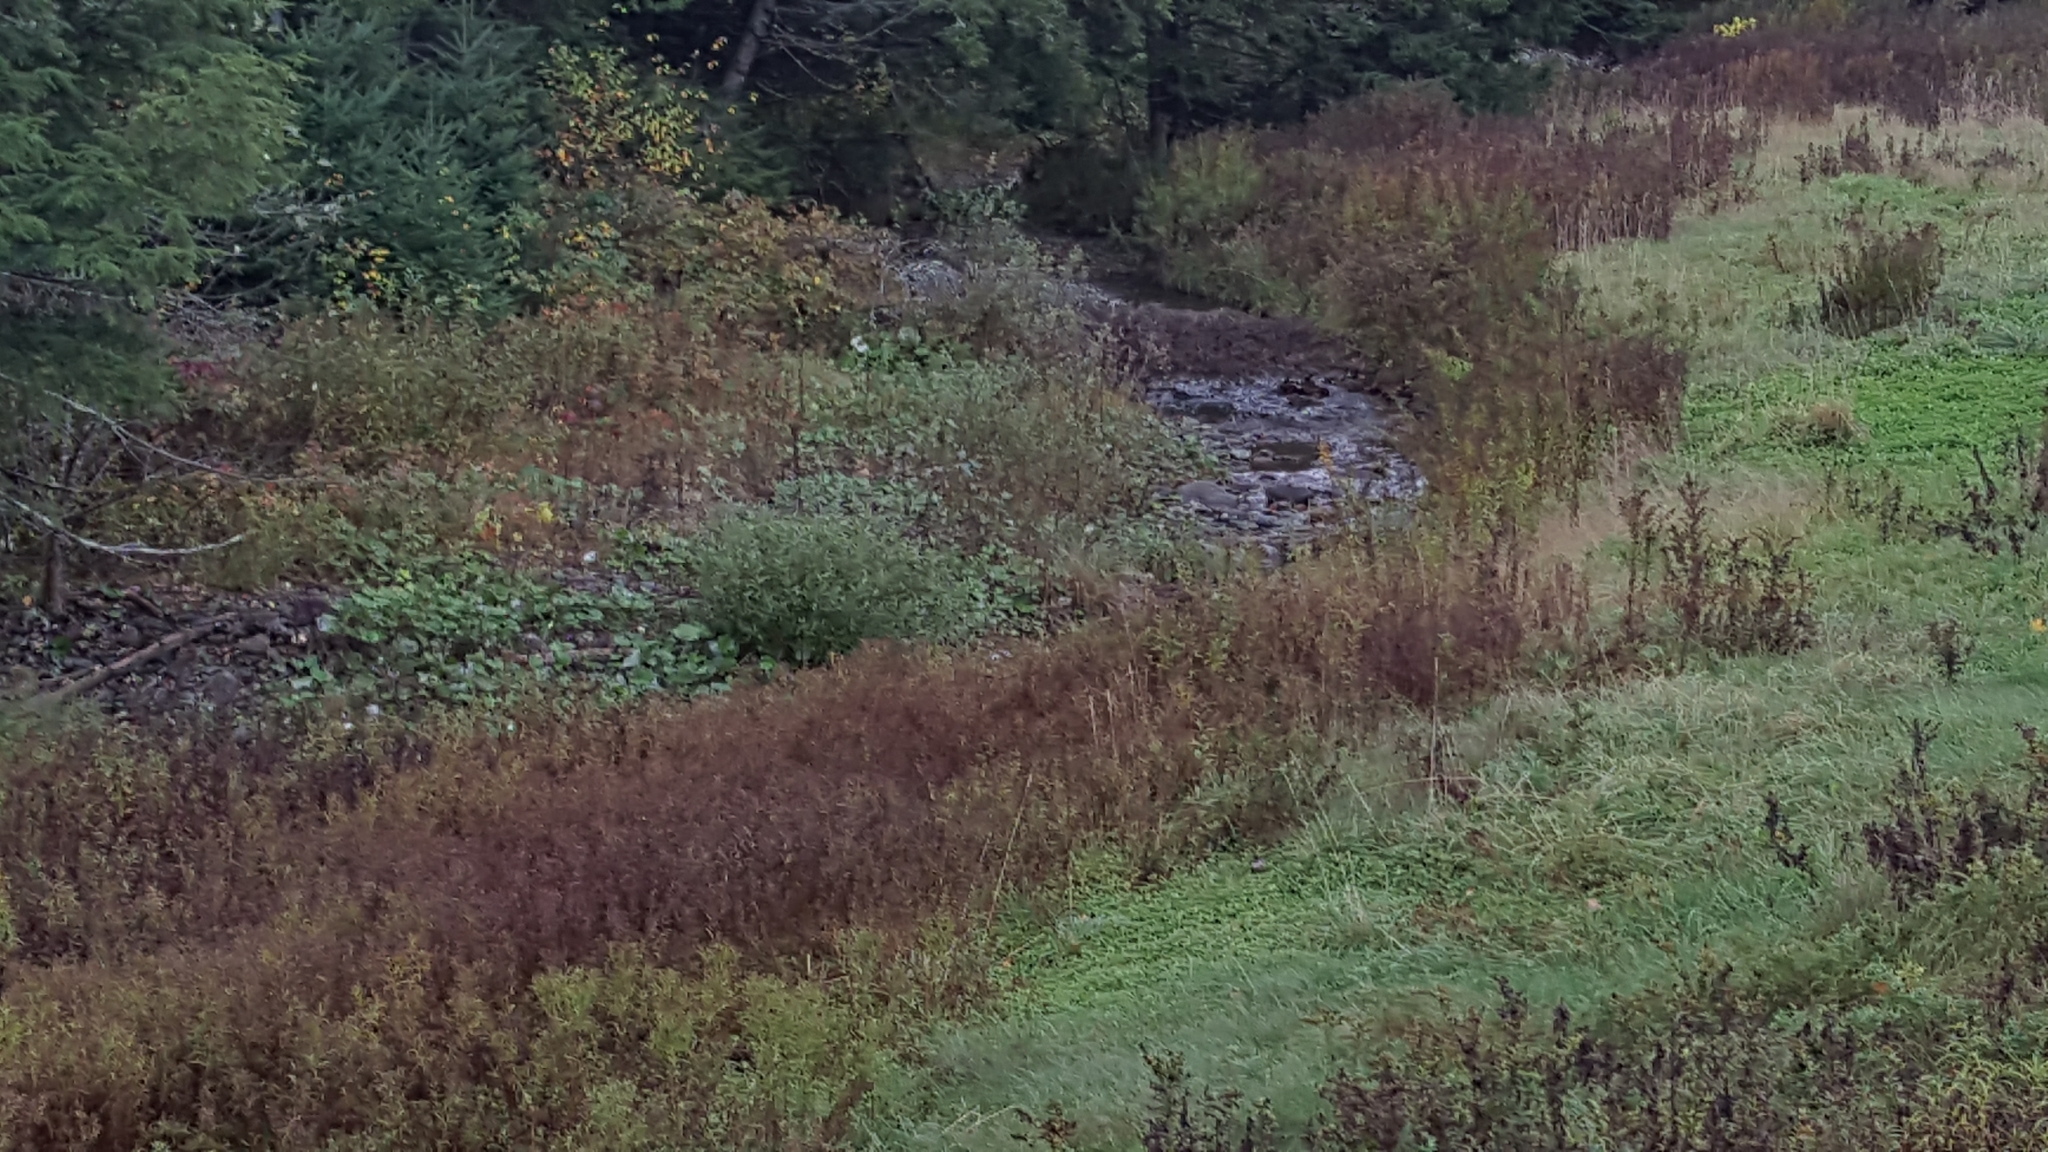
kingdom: Plantae
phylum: Tracheophyta
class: Magnoliopsida
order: Asterales
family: Asteraceae
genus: Tussilago
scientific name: Tussilago farfara
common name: Coltsfoot
